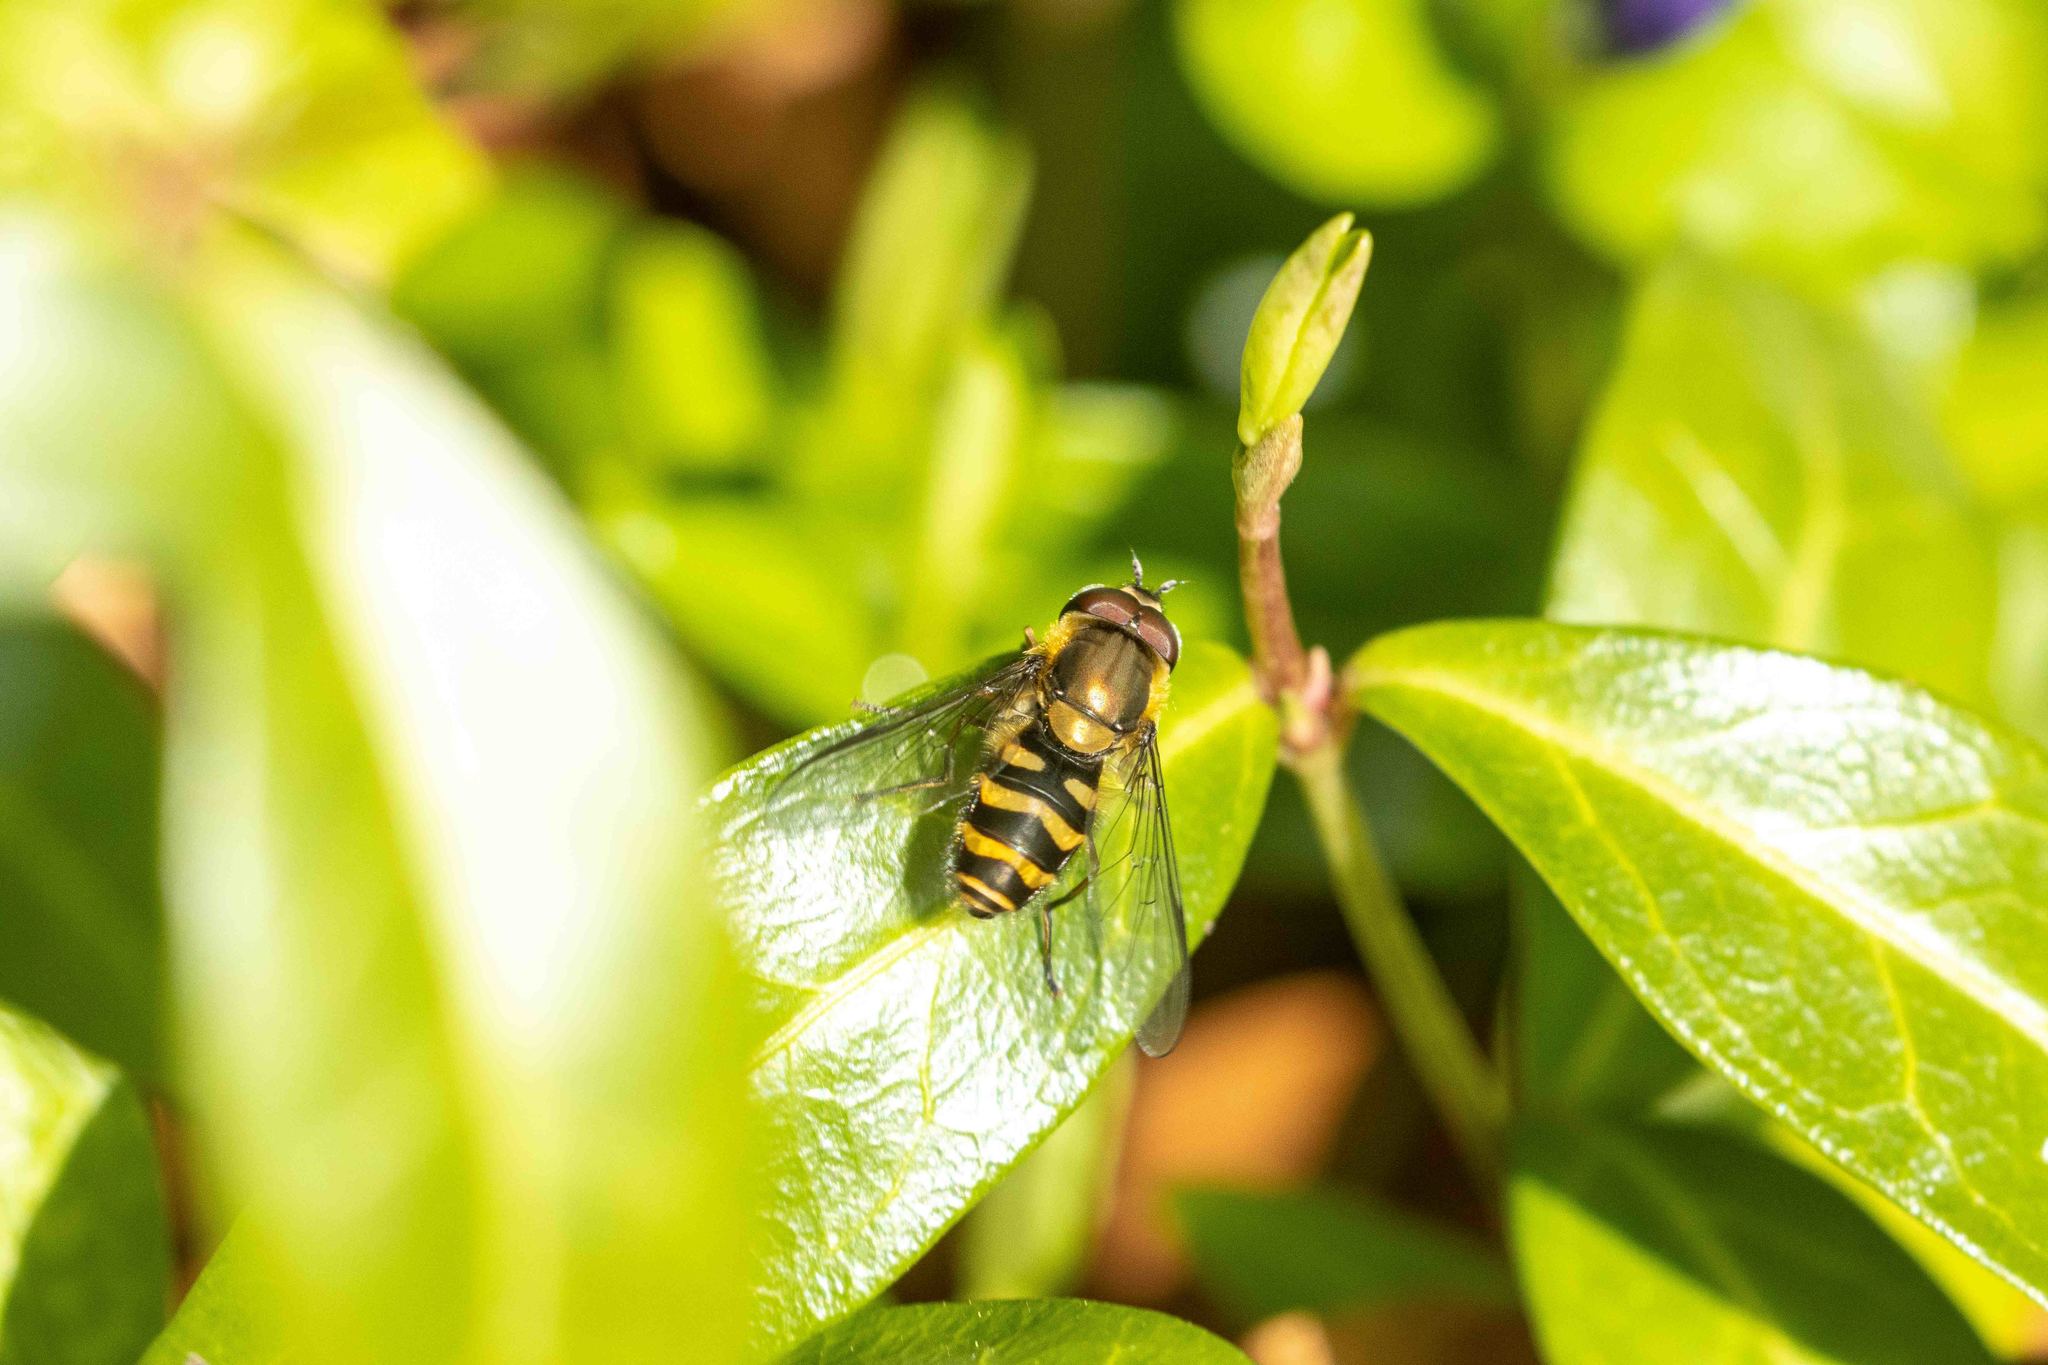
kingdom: Animalia
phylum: Arthropoda
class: Insecta
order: Diptera
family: Syrphidae
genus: Syrphus
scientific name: Syrphus torvus
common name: Hairy-eyed flower fly
